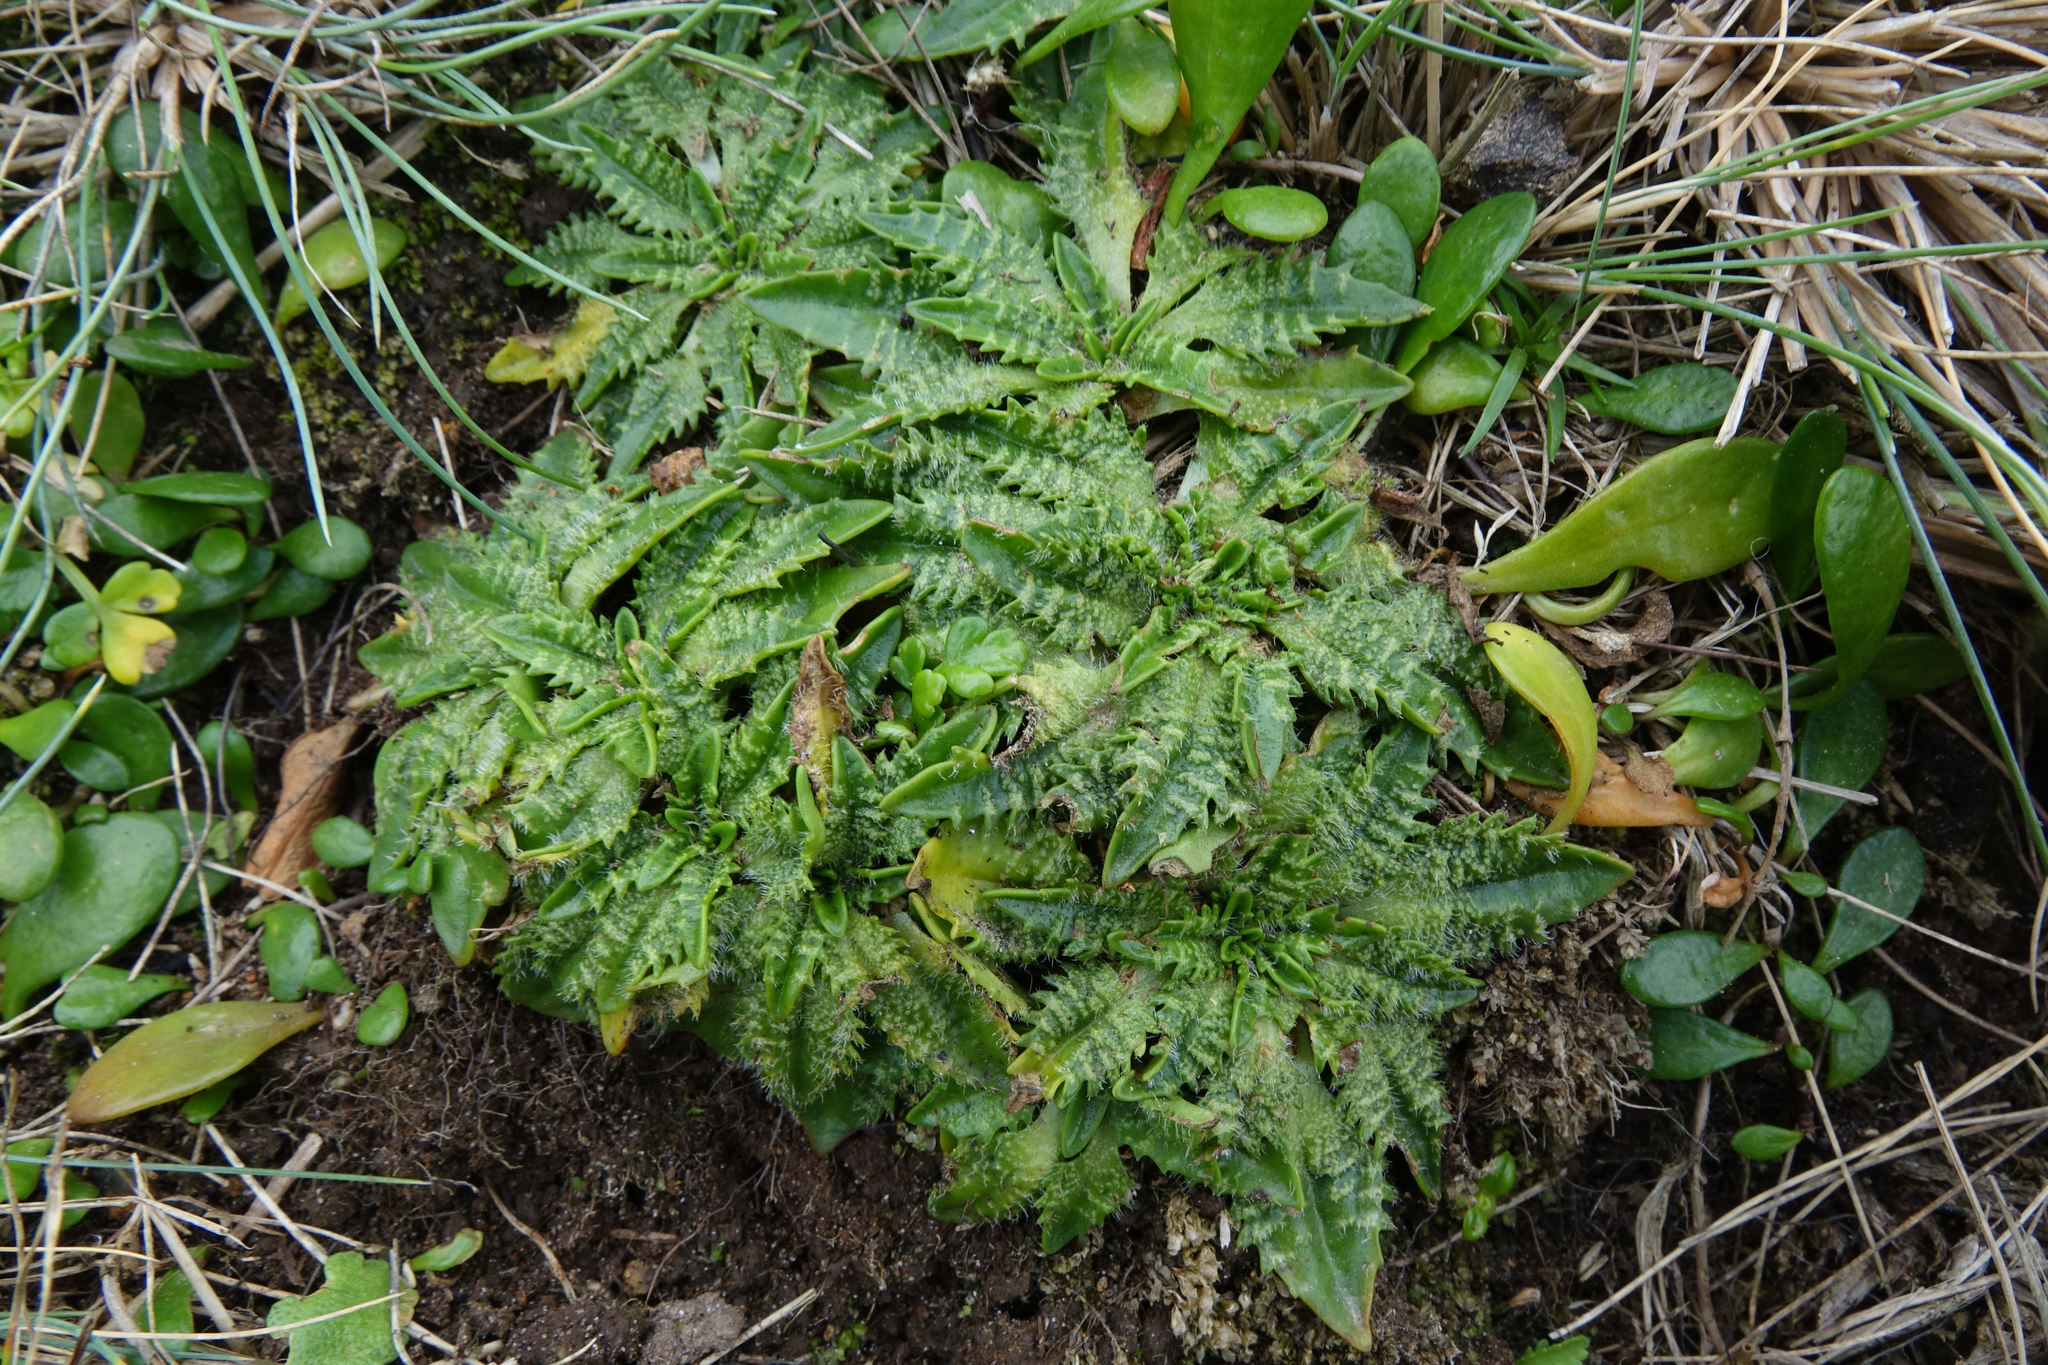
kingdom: Plantae
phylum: Tracheophyta
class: Magnoliopsida
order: Lamiales
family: Plantaginaceae
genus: Plantago
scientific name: Plantago triandra
